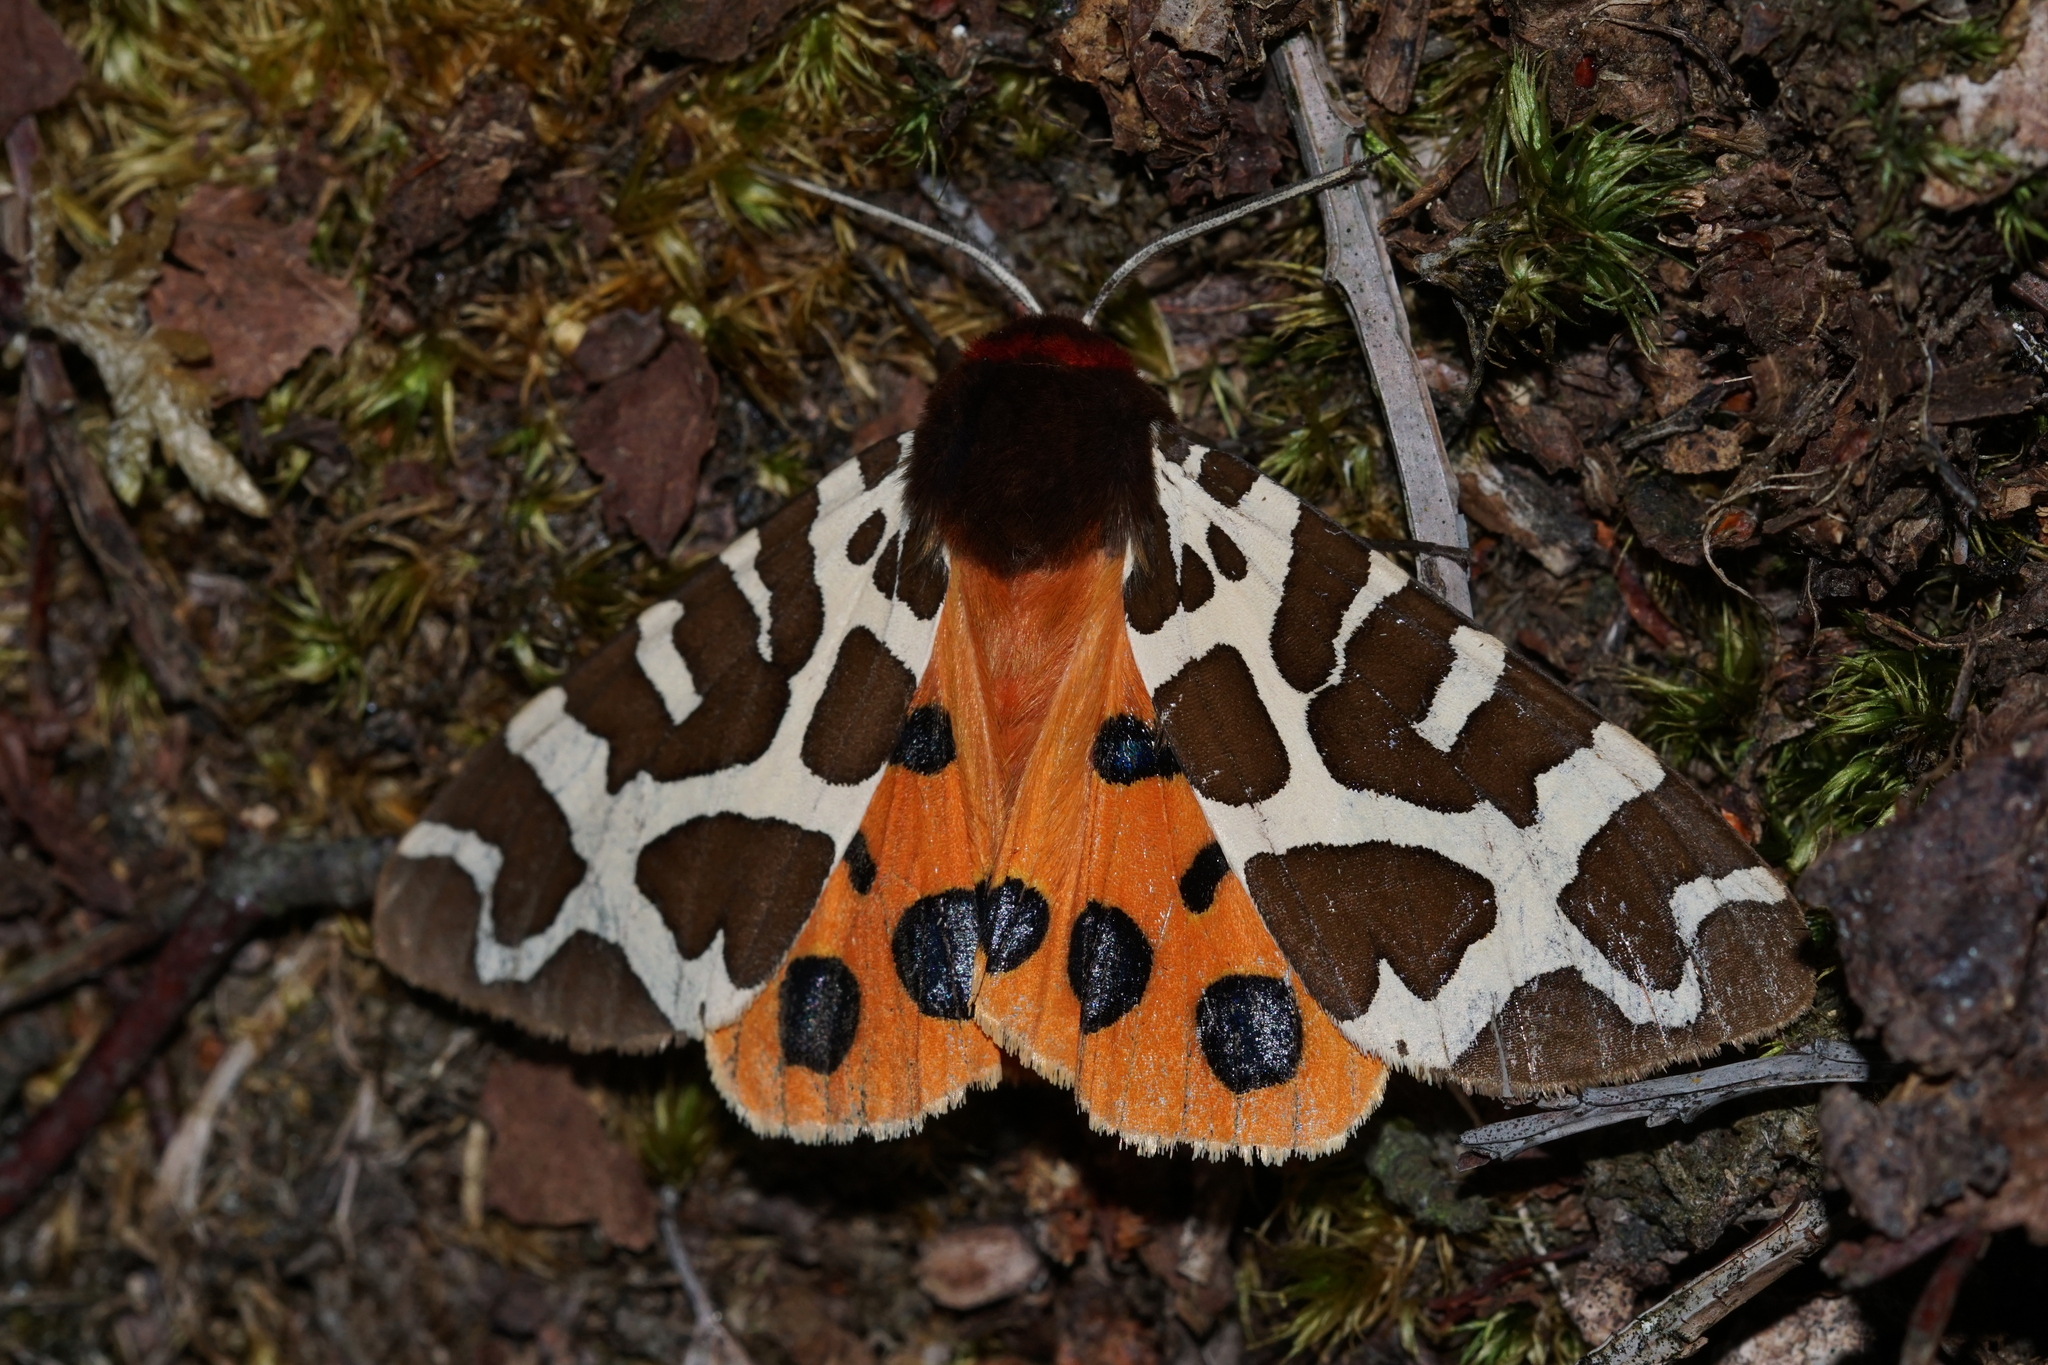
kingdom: Animalia
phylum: Arthropoda
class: Insecta
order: Lepidoptera
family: Erebidae
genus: Arctia
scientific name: Arctia caja
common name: Garden tiger
